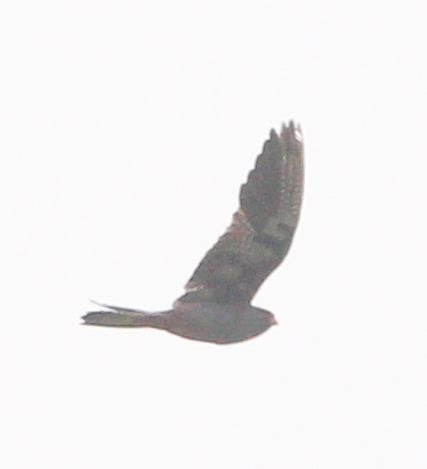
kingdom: Animalia
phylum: Chordata
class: Aves
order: Falconiformes
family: Falconidae
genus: Falco
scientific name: Falco vespertinus
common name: Red-footed falcon
